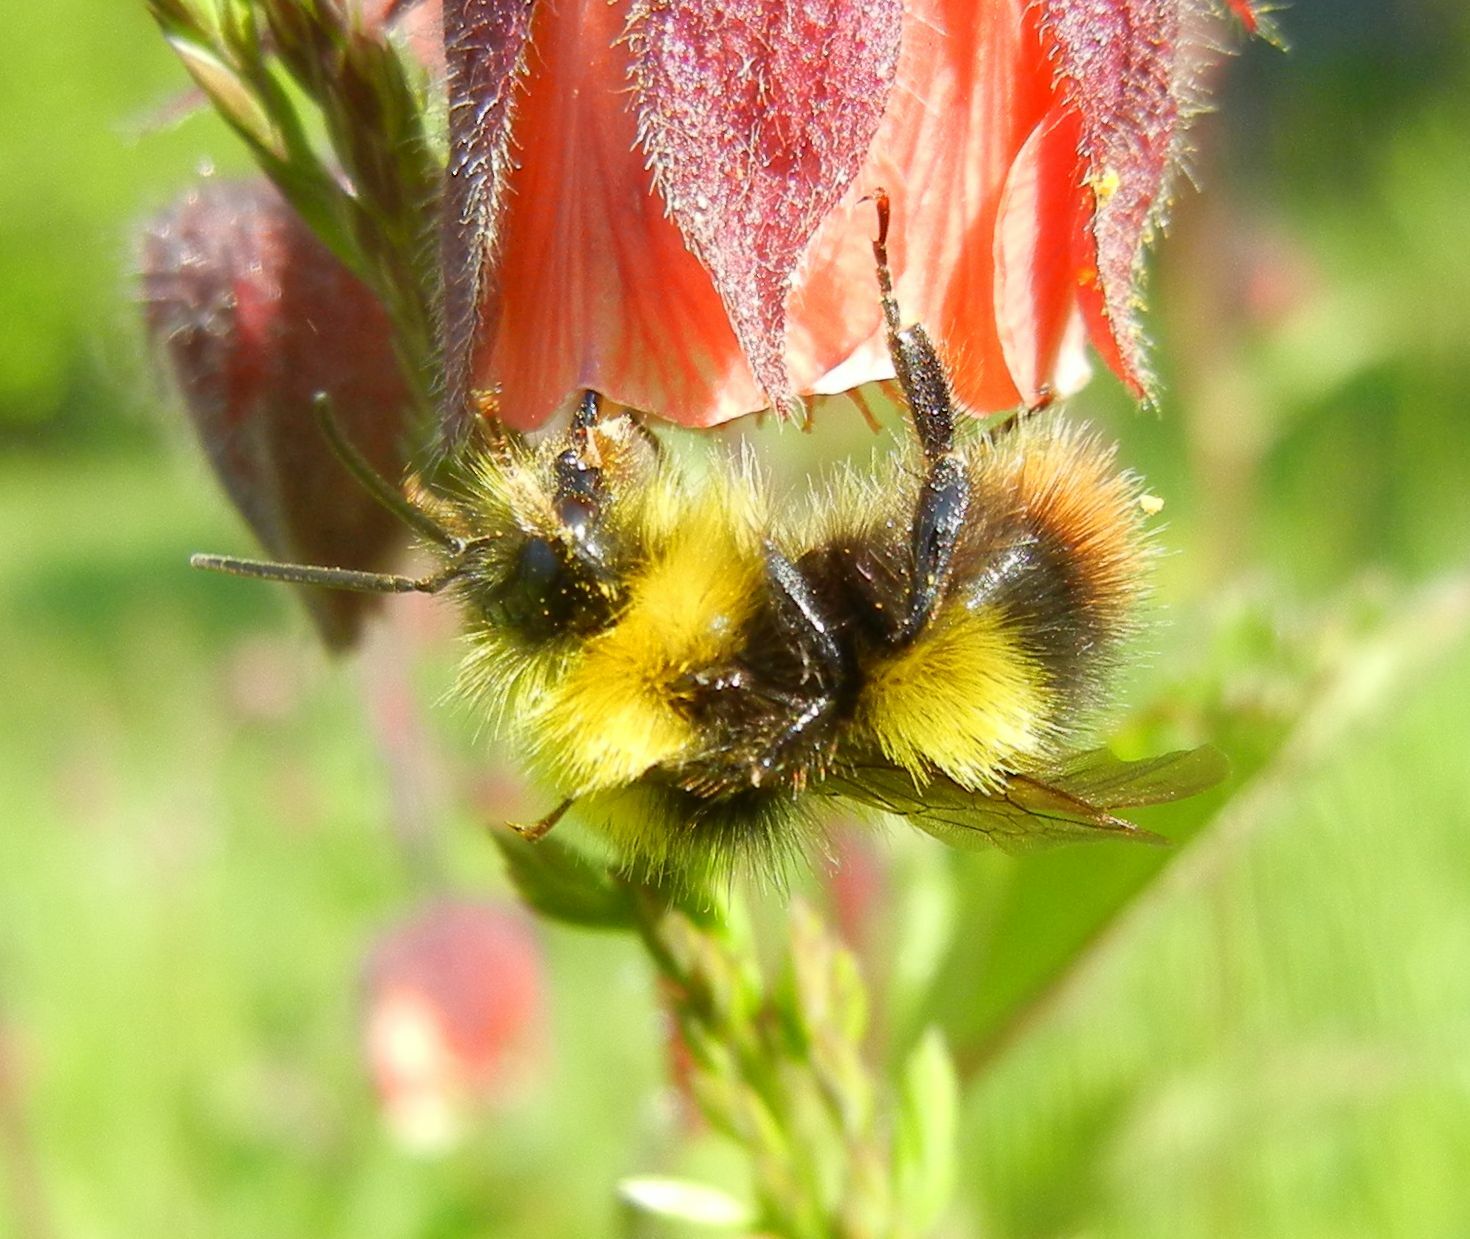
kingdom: Animalia
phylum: Arthropoda
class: Insecta
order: Hymenoptera
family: Apidae
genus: Bombus
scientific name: Bombus pratorum
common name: Early humble-bee
